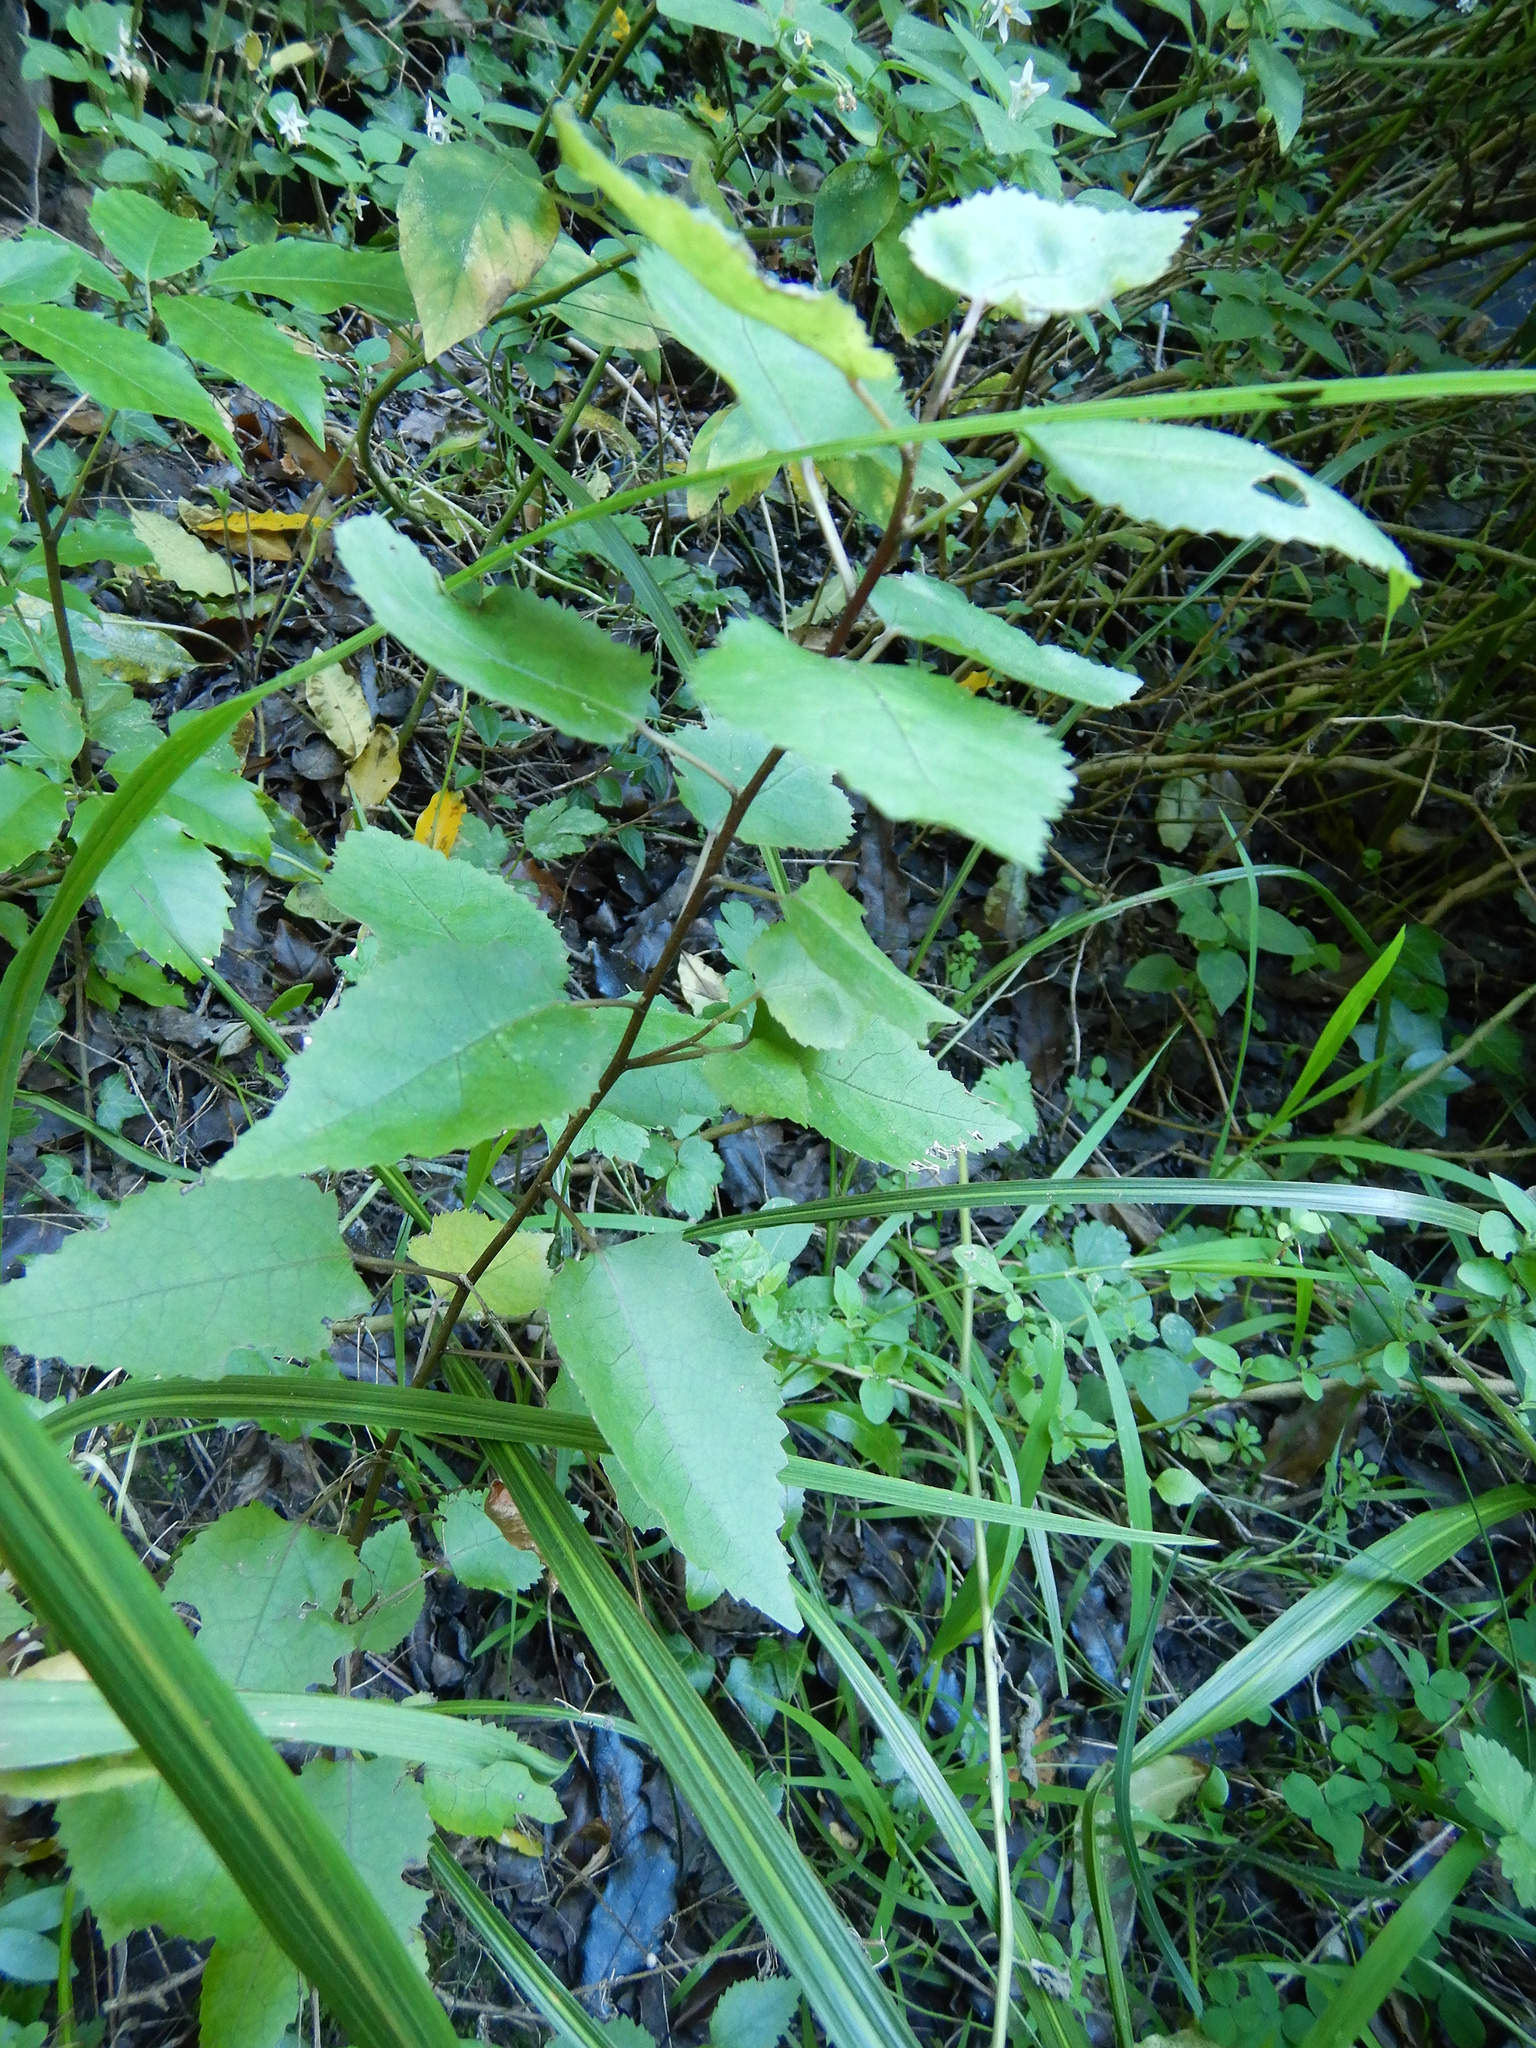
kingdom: Plantae
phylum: Tracheophyta
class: Magnoliopsida
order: Malvales
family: Malvaceae
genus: Hoheria
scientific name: Hoheria populnea
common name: Lacebark
